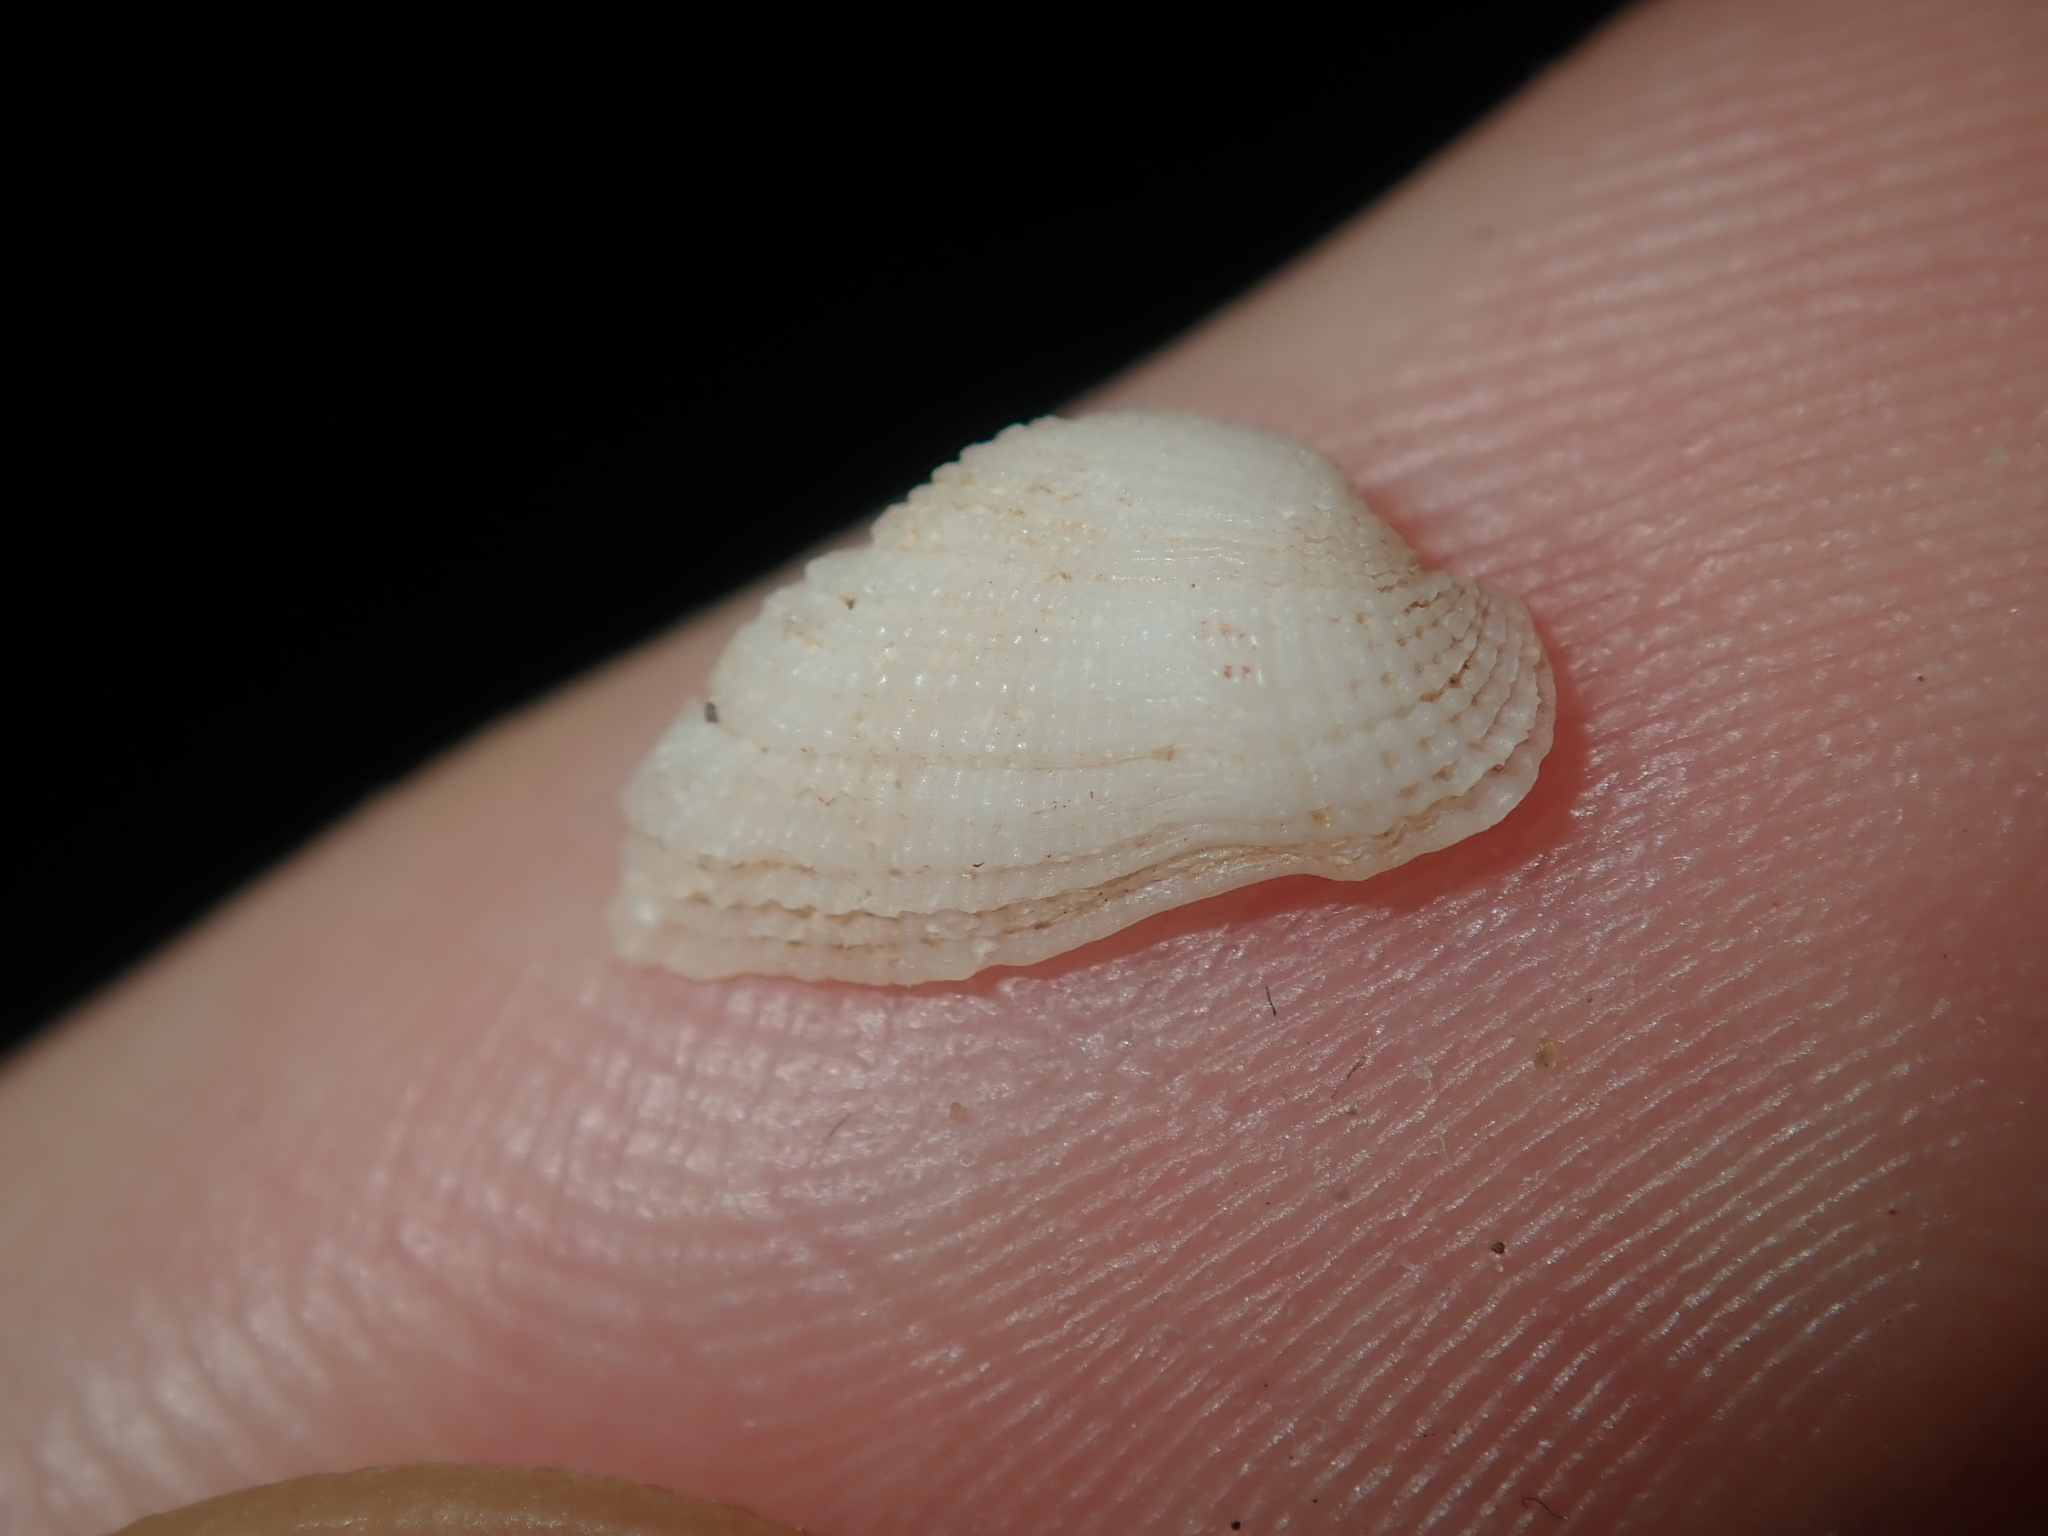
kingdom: Animalia
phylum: Mollusca
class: Bivalvia
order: Arcida
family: Arcidae
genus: Acar
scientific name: Acar botanica
